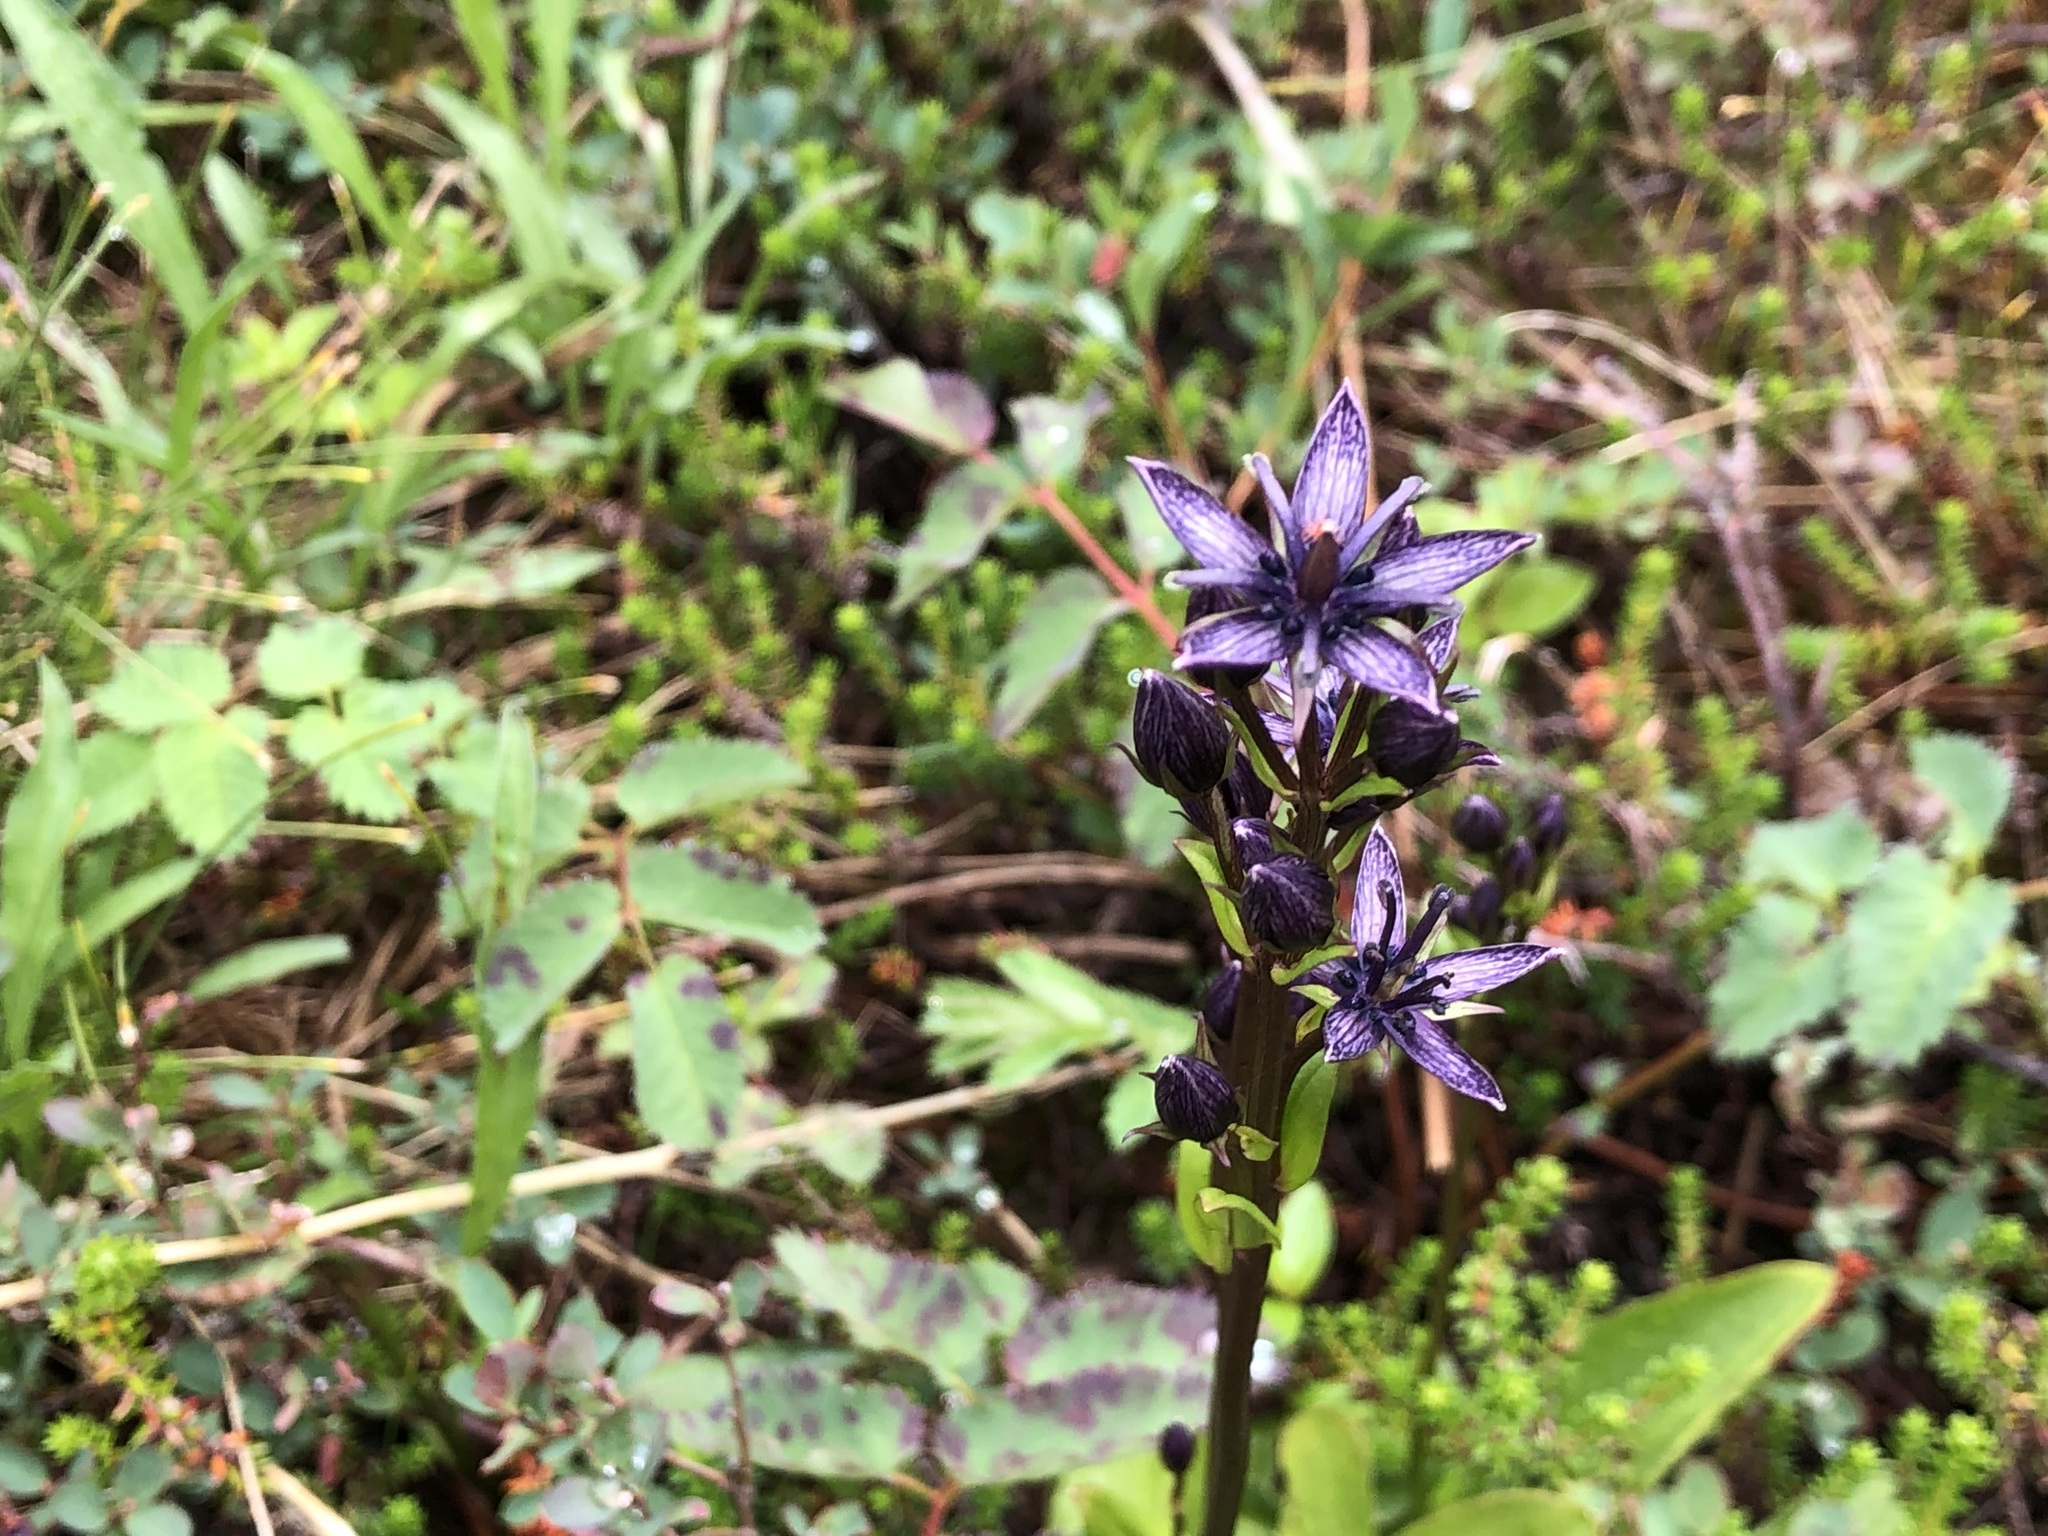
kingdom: Plantae
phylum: Tracheophyta
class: Magnoliopsida
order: Gentianales
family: Gentianaceae
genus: Swertia
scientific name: Swertia perennis
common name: Alpine bog swertia
